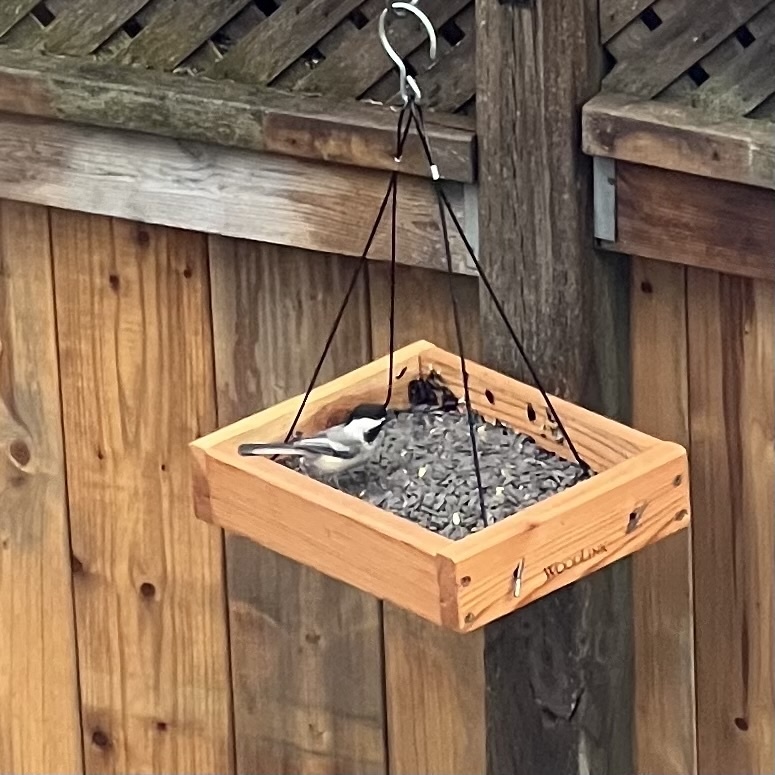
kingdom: Animalia
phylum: Chordata
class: Aves
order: Passeriformes
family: Paridae
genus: Poecile
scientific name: Poecile atricapillus
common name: Black-capped chickadee
